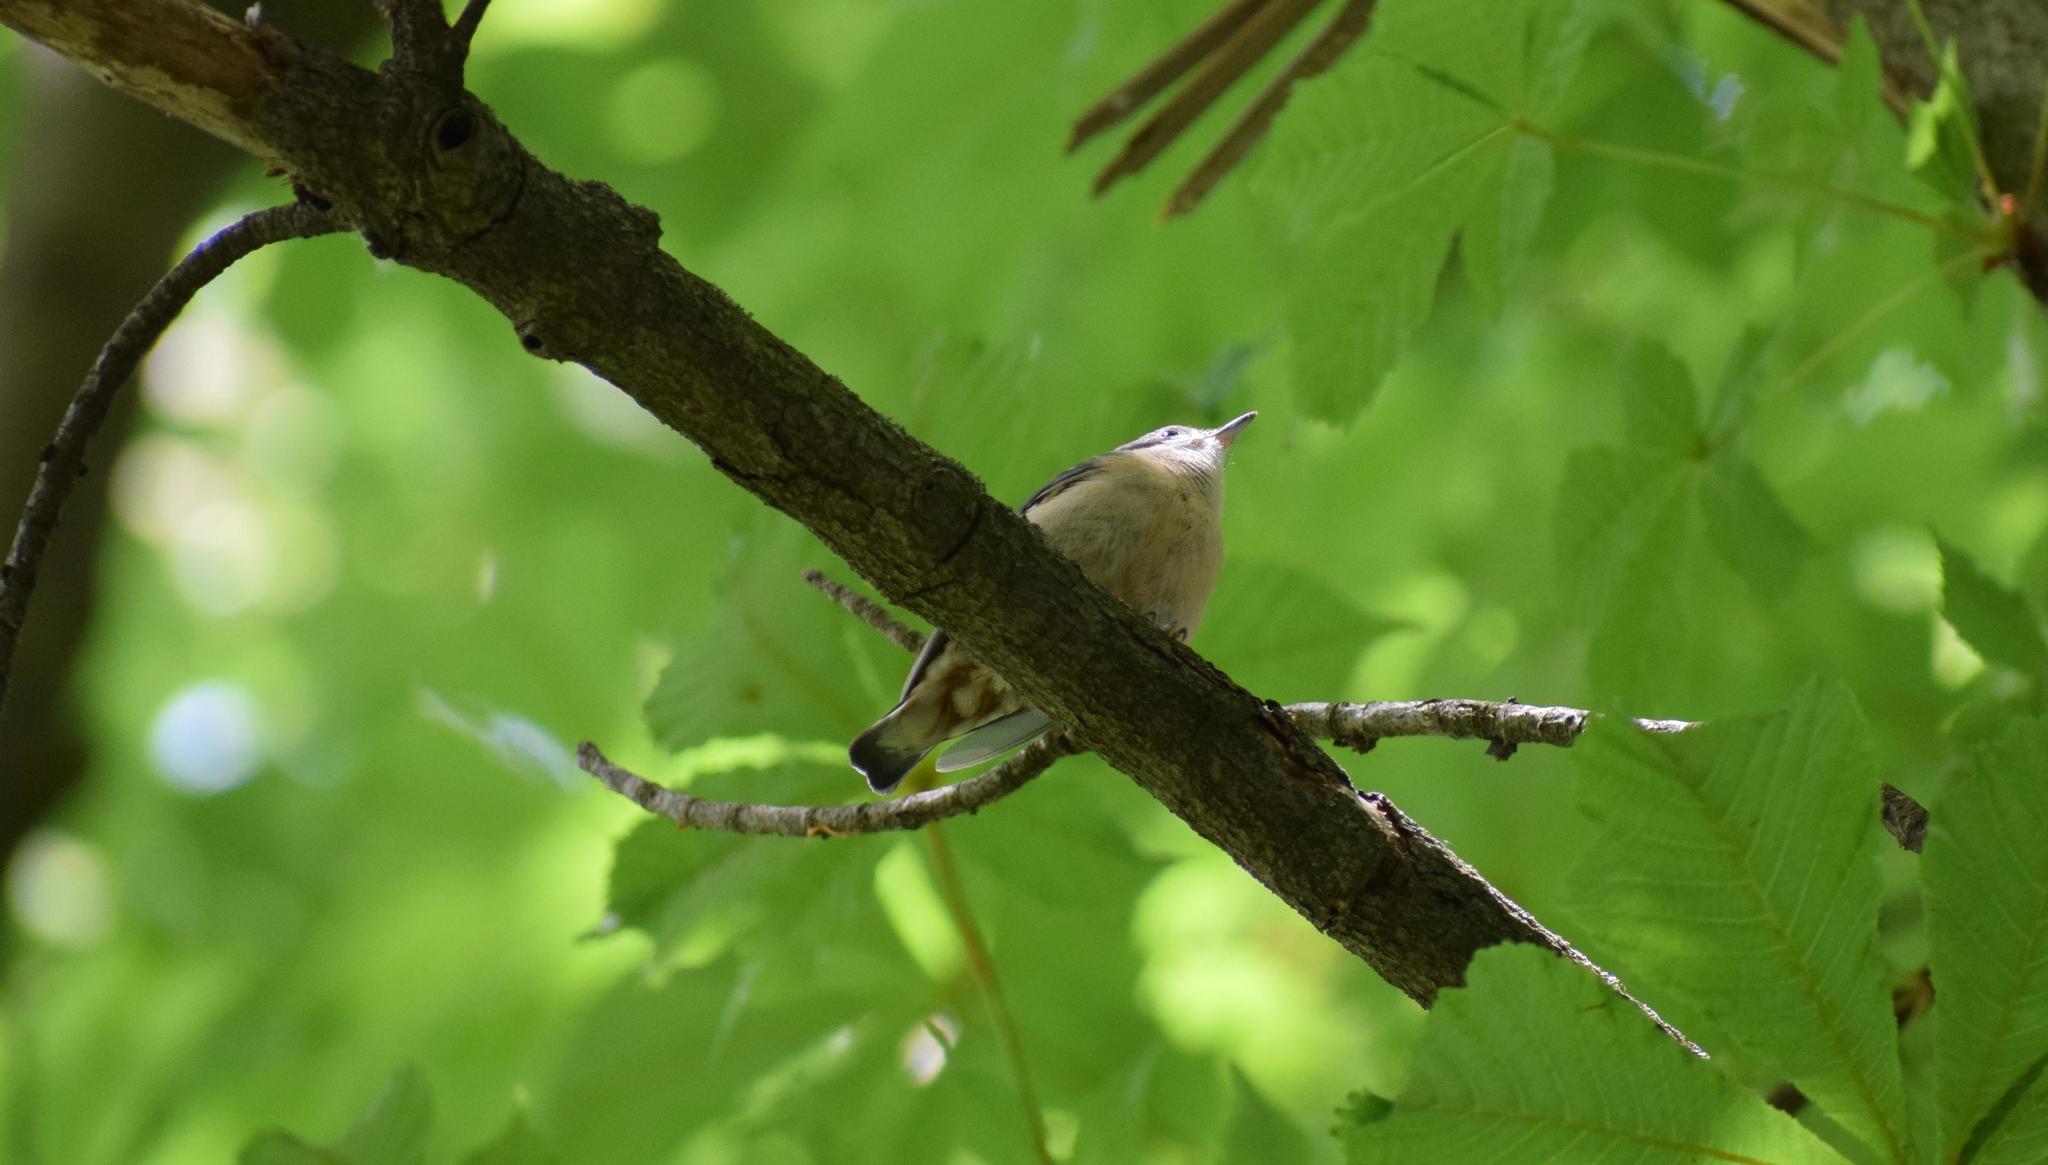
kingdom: Animalia
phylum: Chordata
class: Aves
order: Passeriformes
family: Sittidae
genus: Sitta
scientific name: Sitta europaea
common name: Eurasian nuthatch
